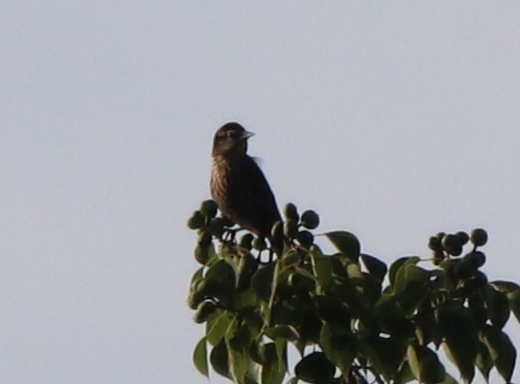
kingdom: Animalia
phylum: Chordata
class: Aves
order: Passeriformes
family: Icteridae
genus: Agelaius
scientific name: Agelaius phoeniceus
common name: Red-winged blackbird
